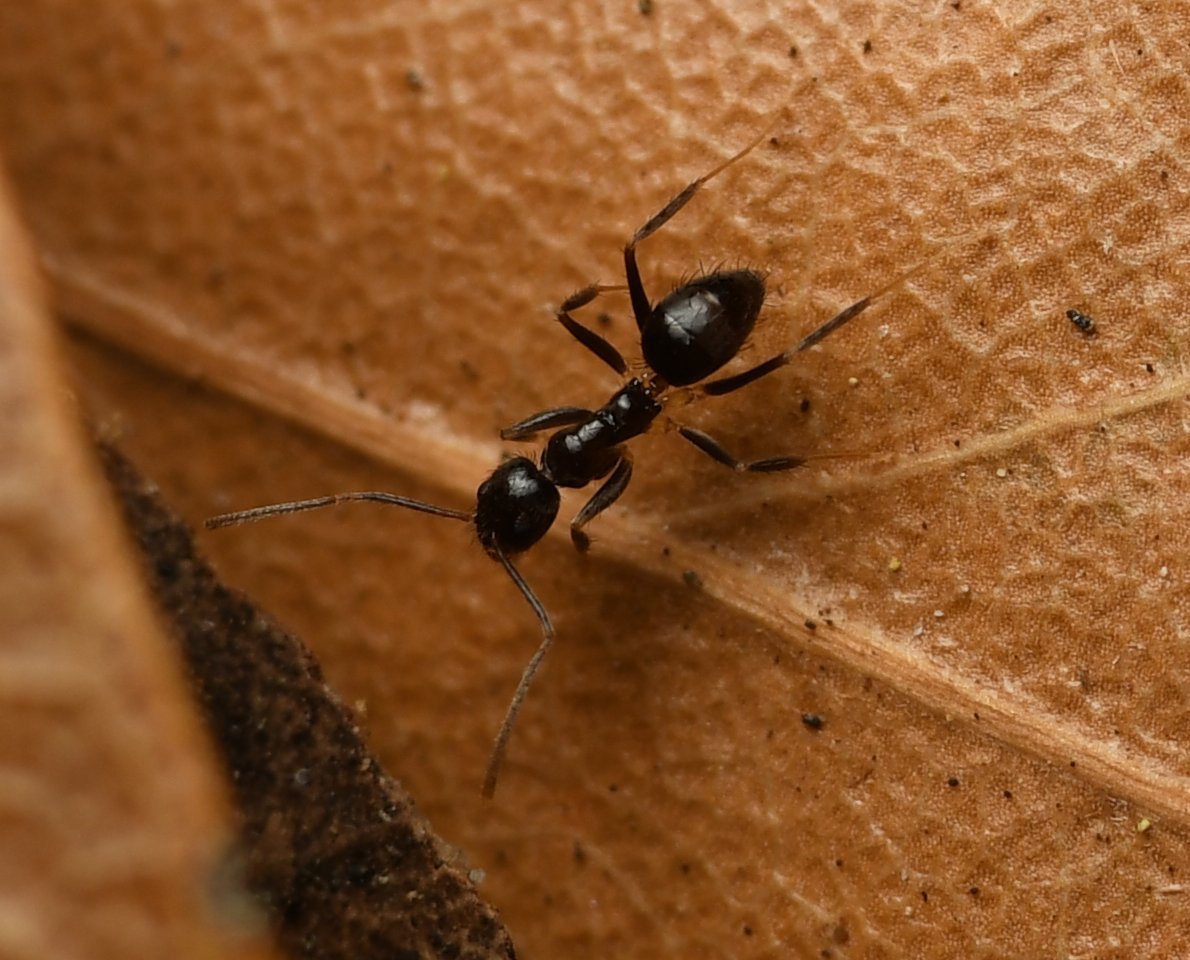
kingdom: Animalia
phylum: Arthropoda
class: Insecta
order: Hymenoptera
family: Formicidae
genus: Nylanderia
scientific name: Nylanderia steinheili
